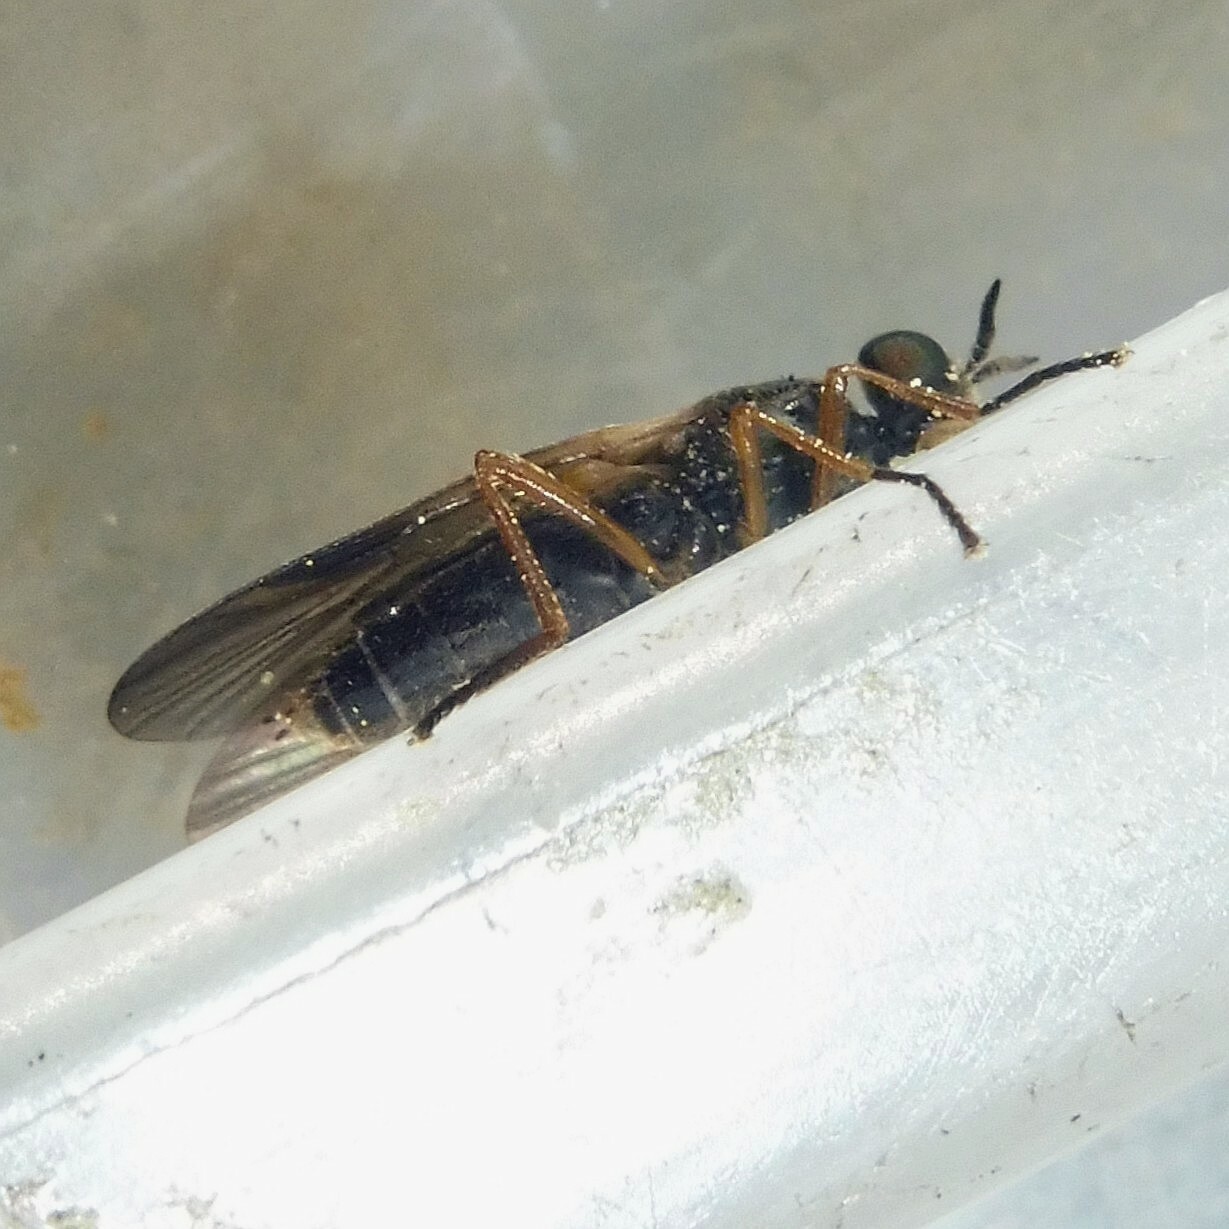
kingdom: Animalia
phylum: Arthropoda
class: Insecta
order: Diptera
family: Stratiomyidae
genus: Beris
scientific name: Beris chalybata
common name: Murky-legged black legionnaire
